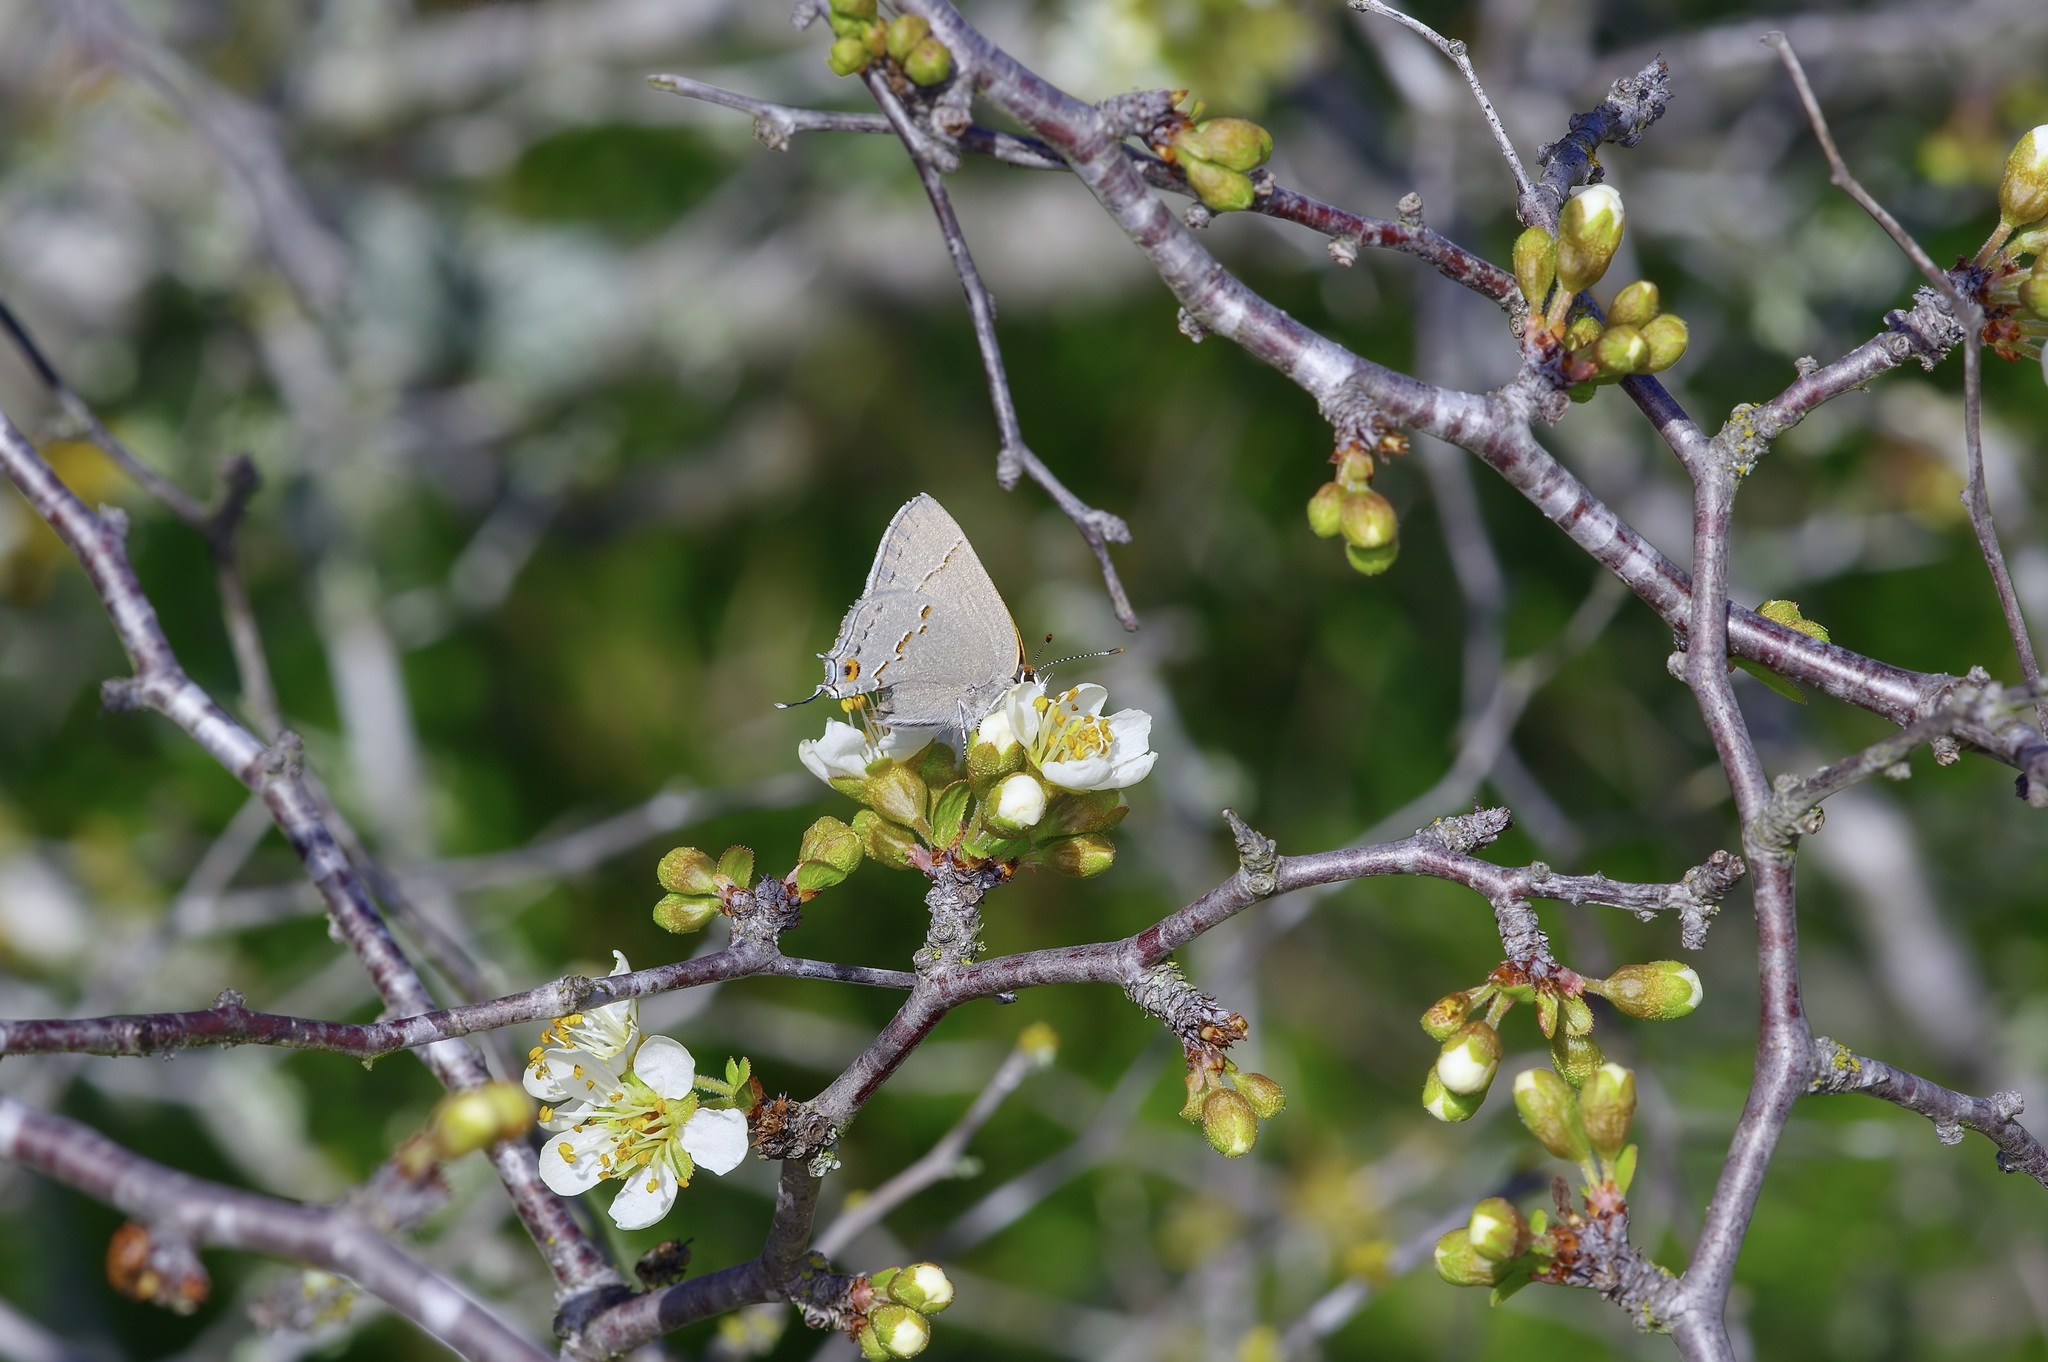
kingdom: Animalia
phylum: Arthropoda
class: Insecta
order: Lepidoptera
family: Lycaenidae
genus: Strymon
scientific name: Strymon melinus
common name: Gray hairstreak
